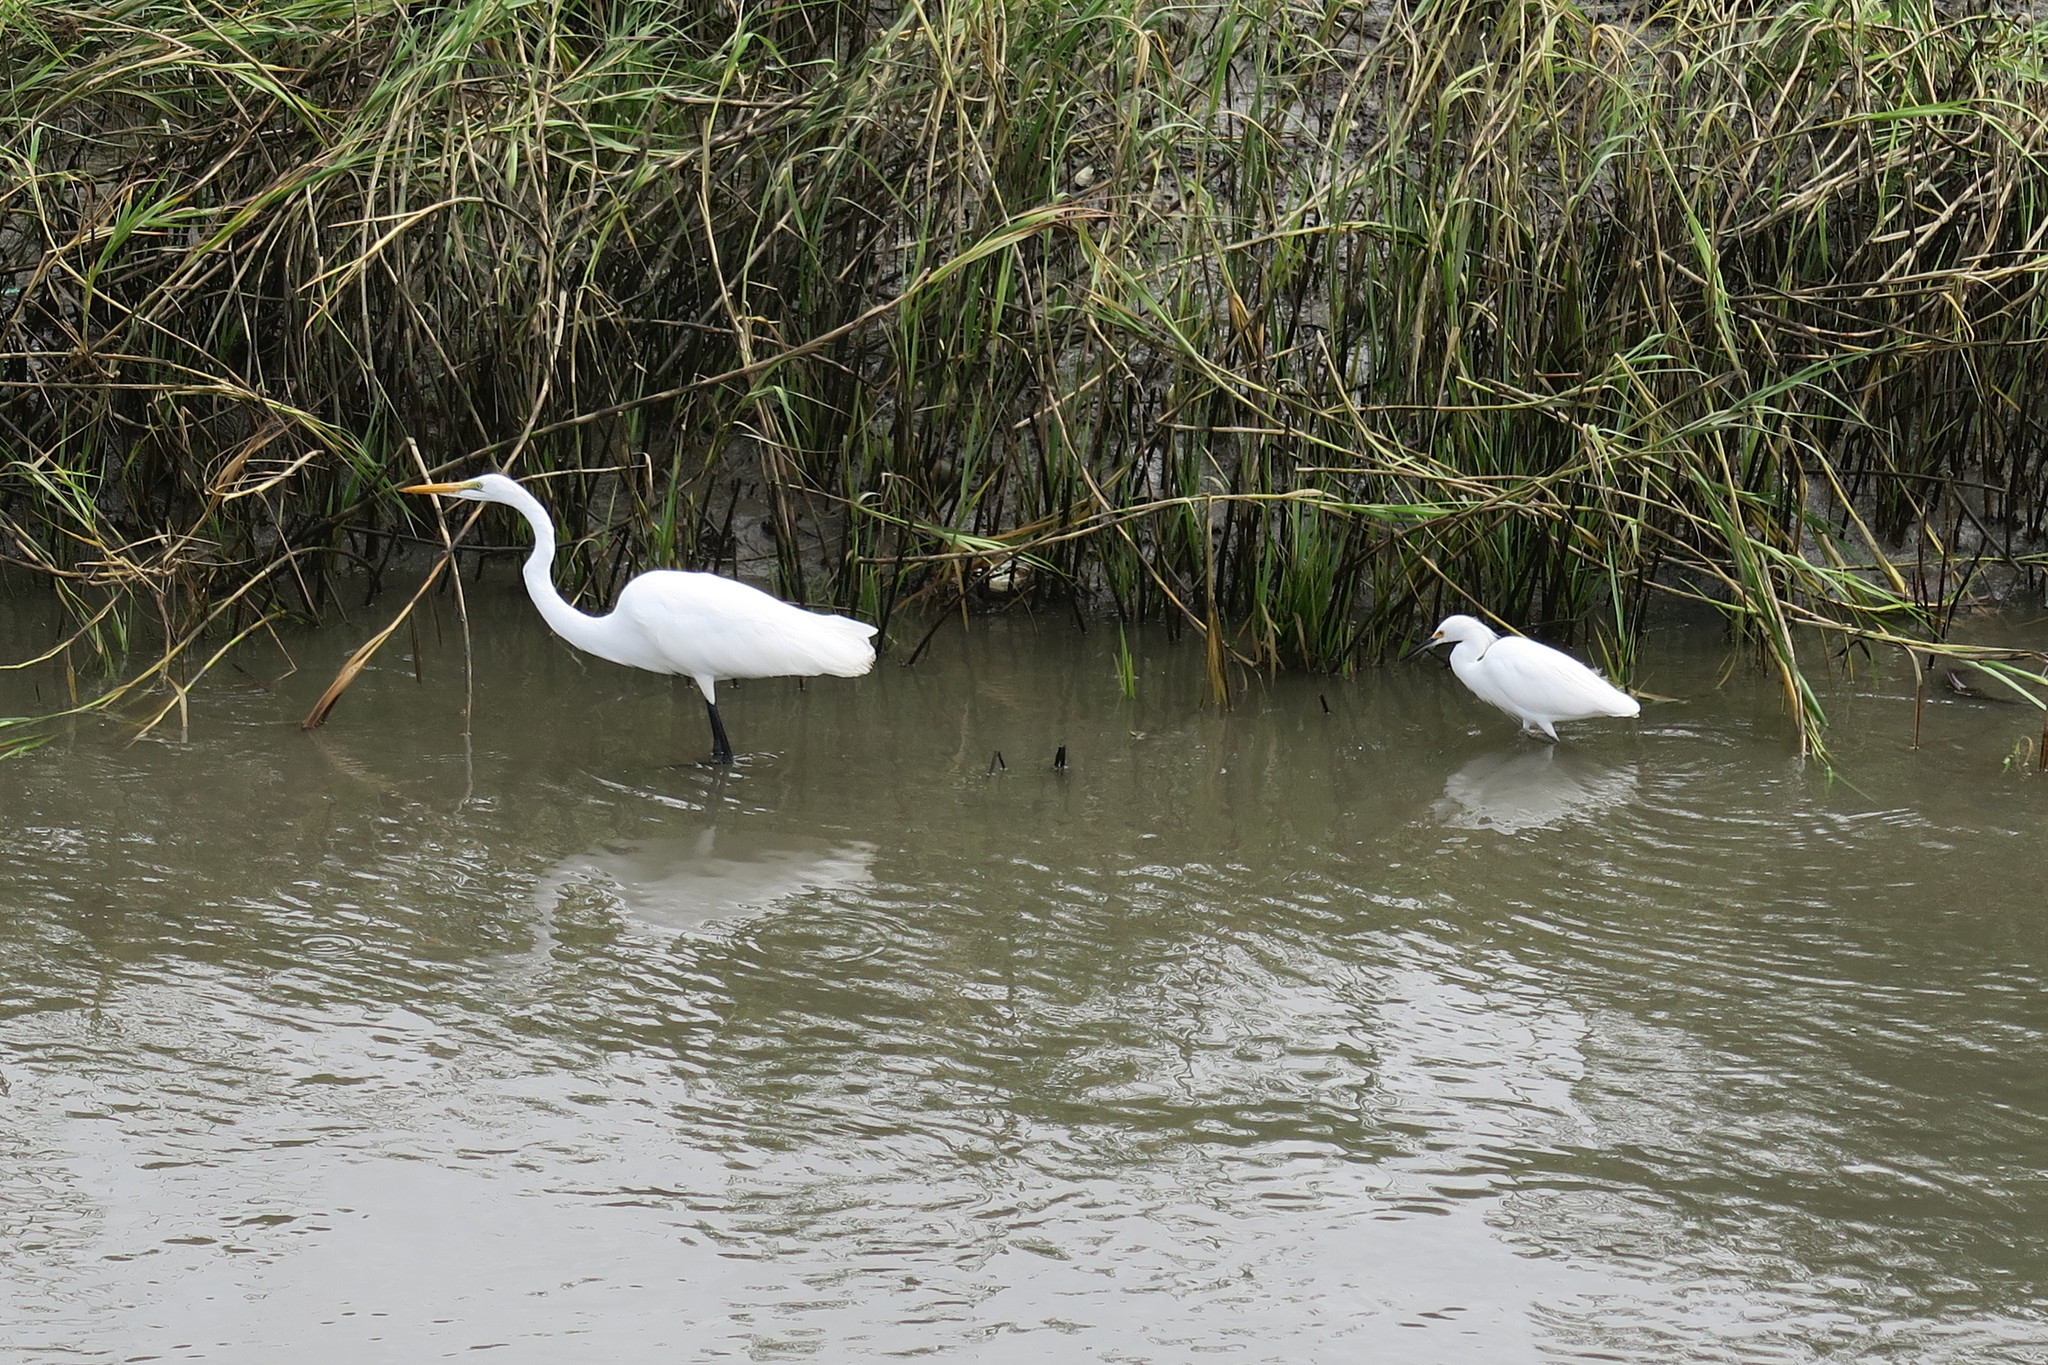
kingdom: Animalia
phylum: Chordata
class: Aves
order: Pelecaniformes
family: Ardeidae
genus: Ardea
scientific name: Ardea alba
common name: Great egret
